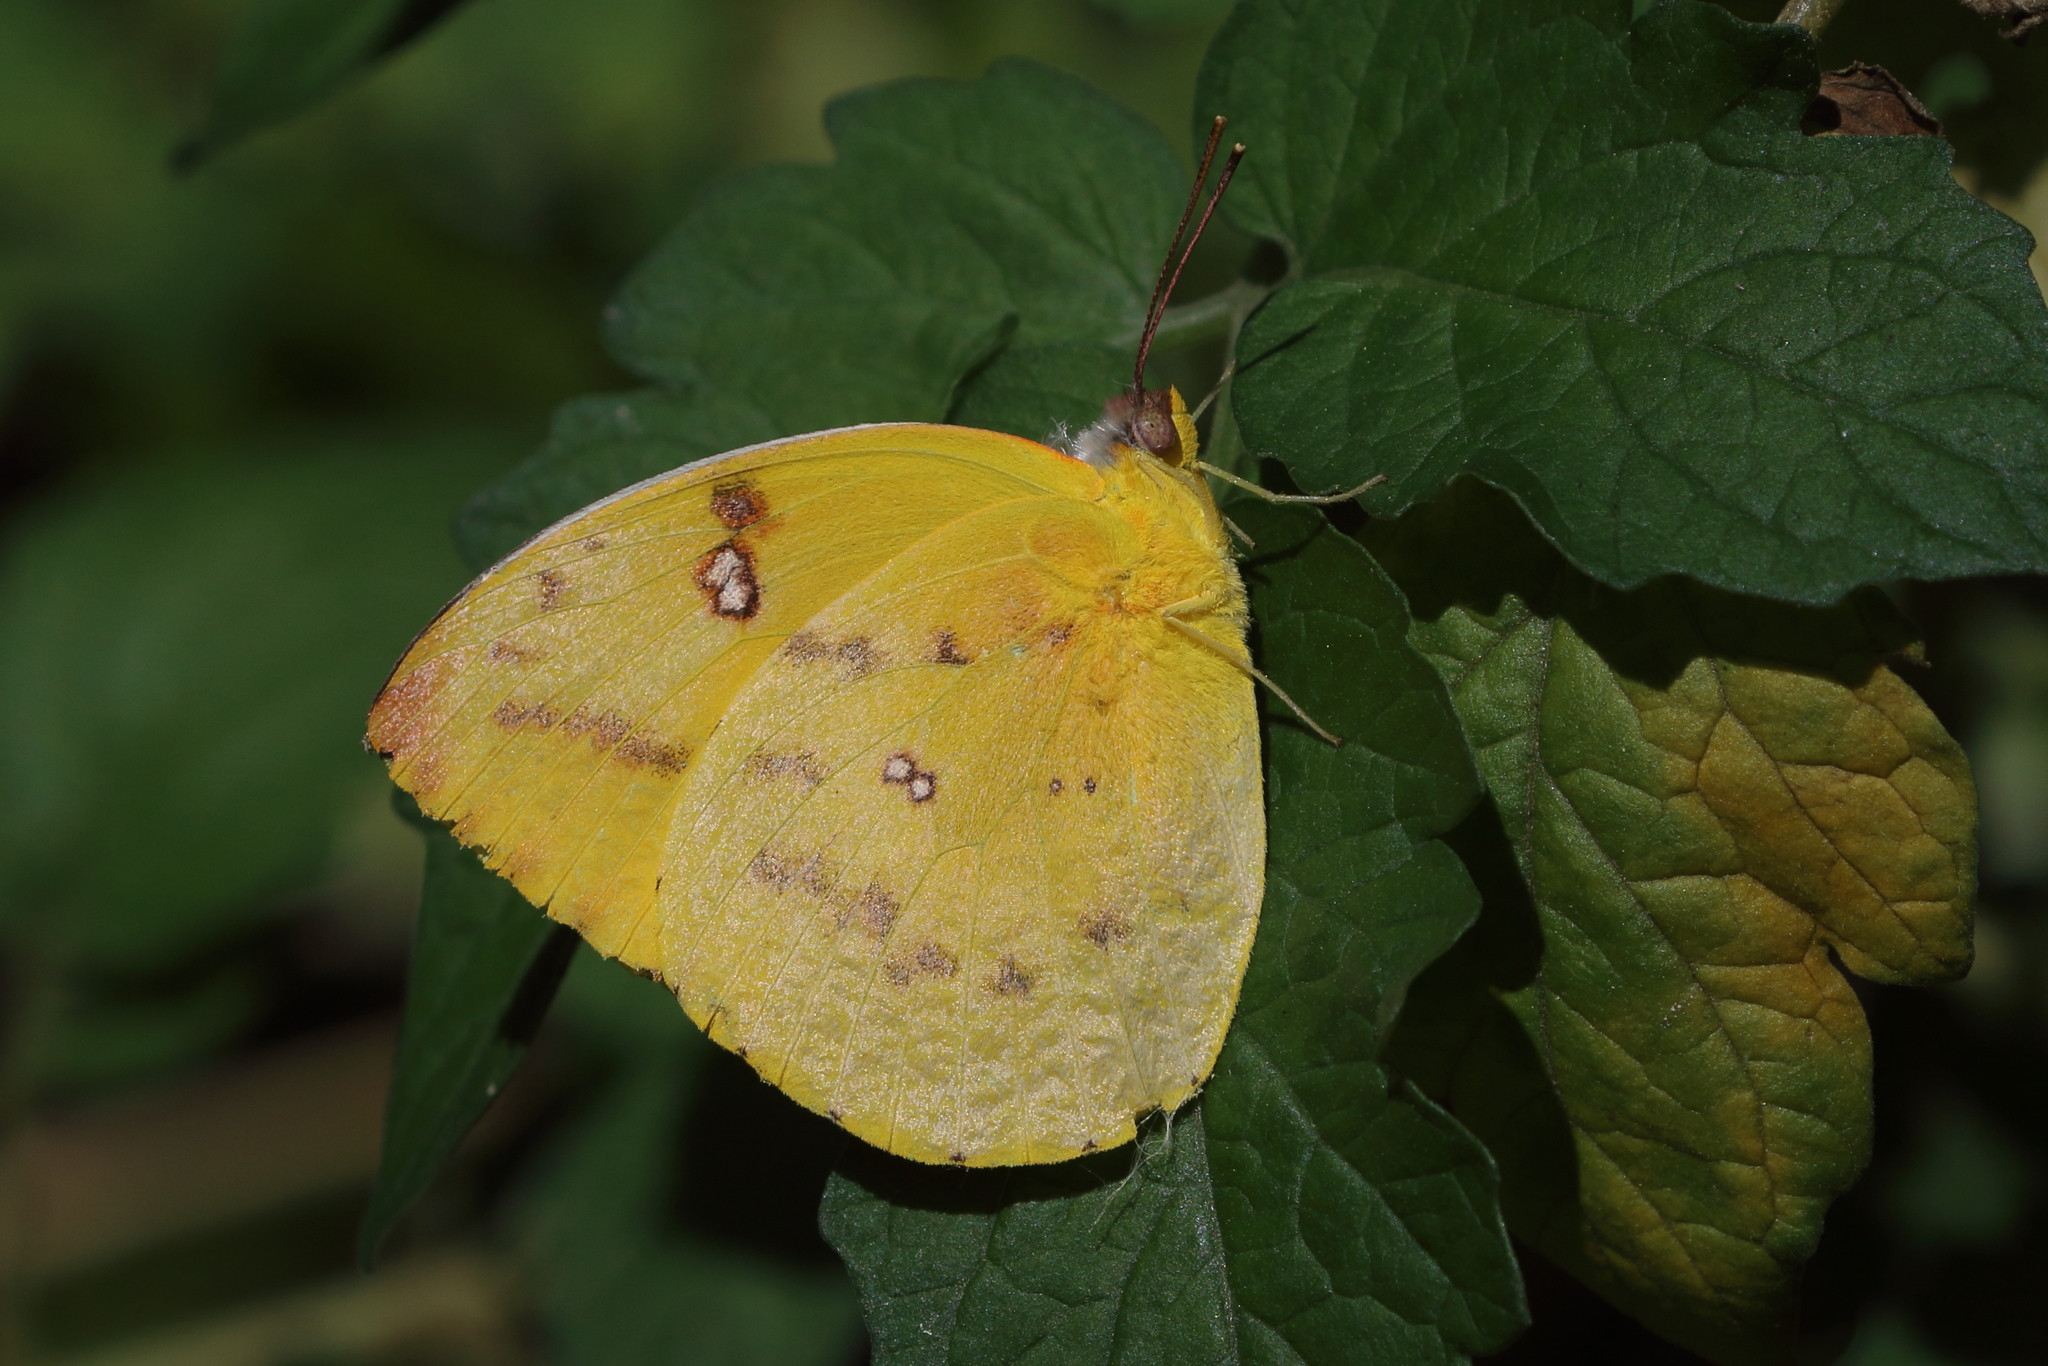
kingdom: Animalia
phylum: Arthropoda
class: Insecta
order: Lepidoptera
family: Pieridae
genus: Catopsilia
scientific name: Catopsilia pomona
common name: Common emigrant
